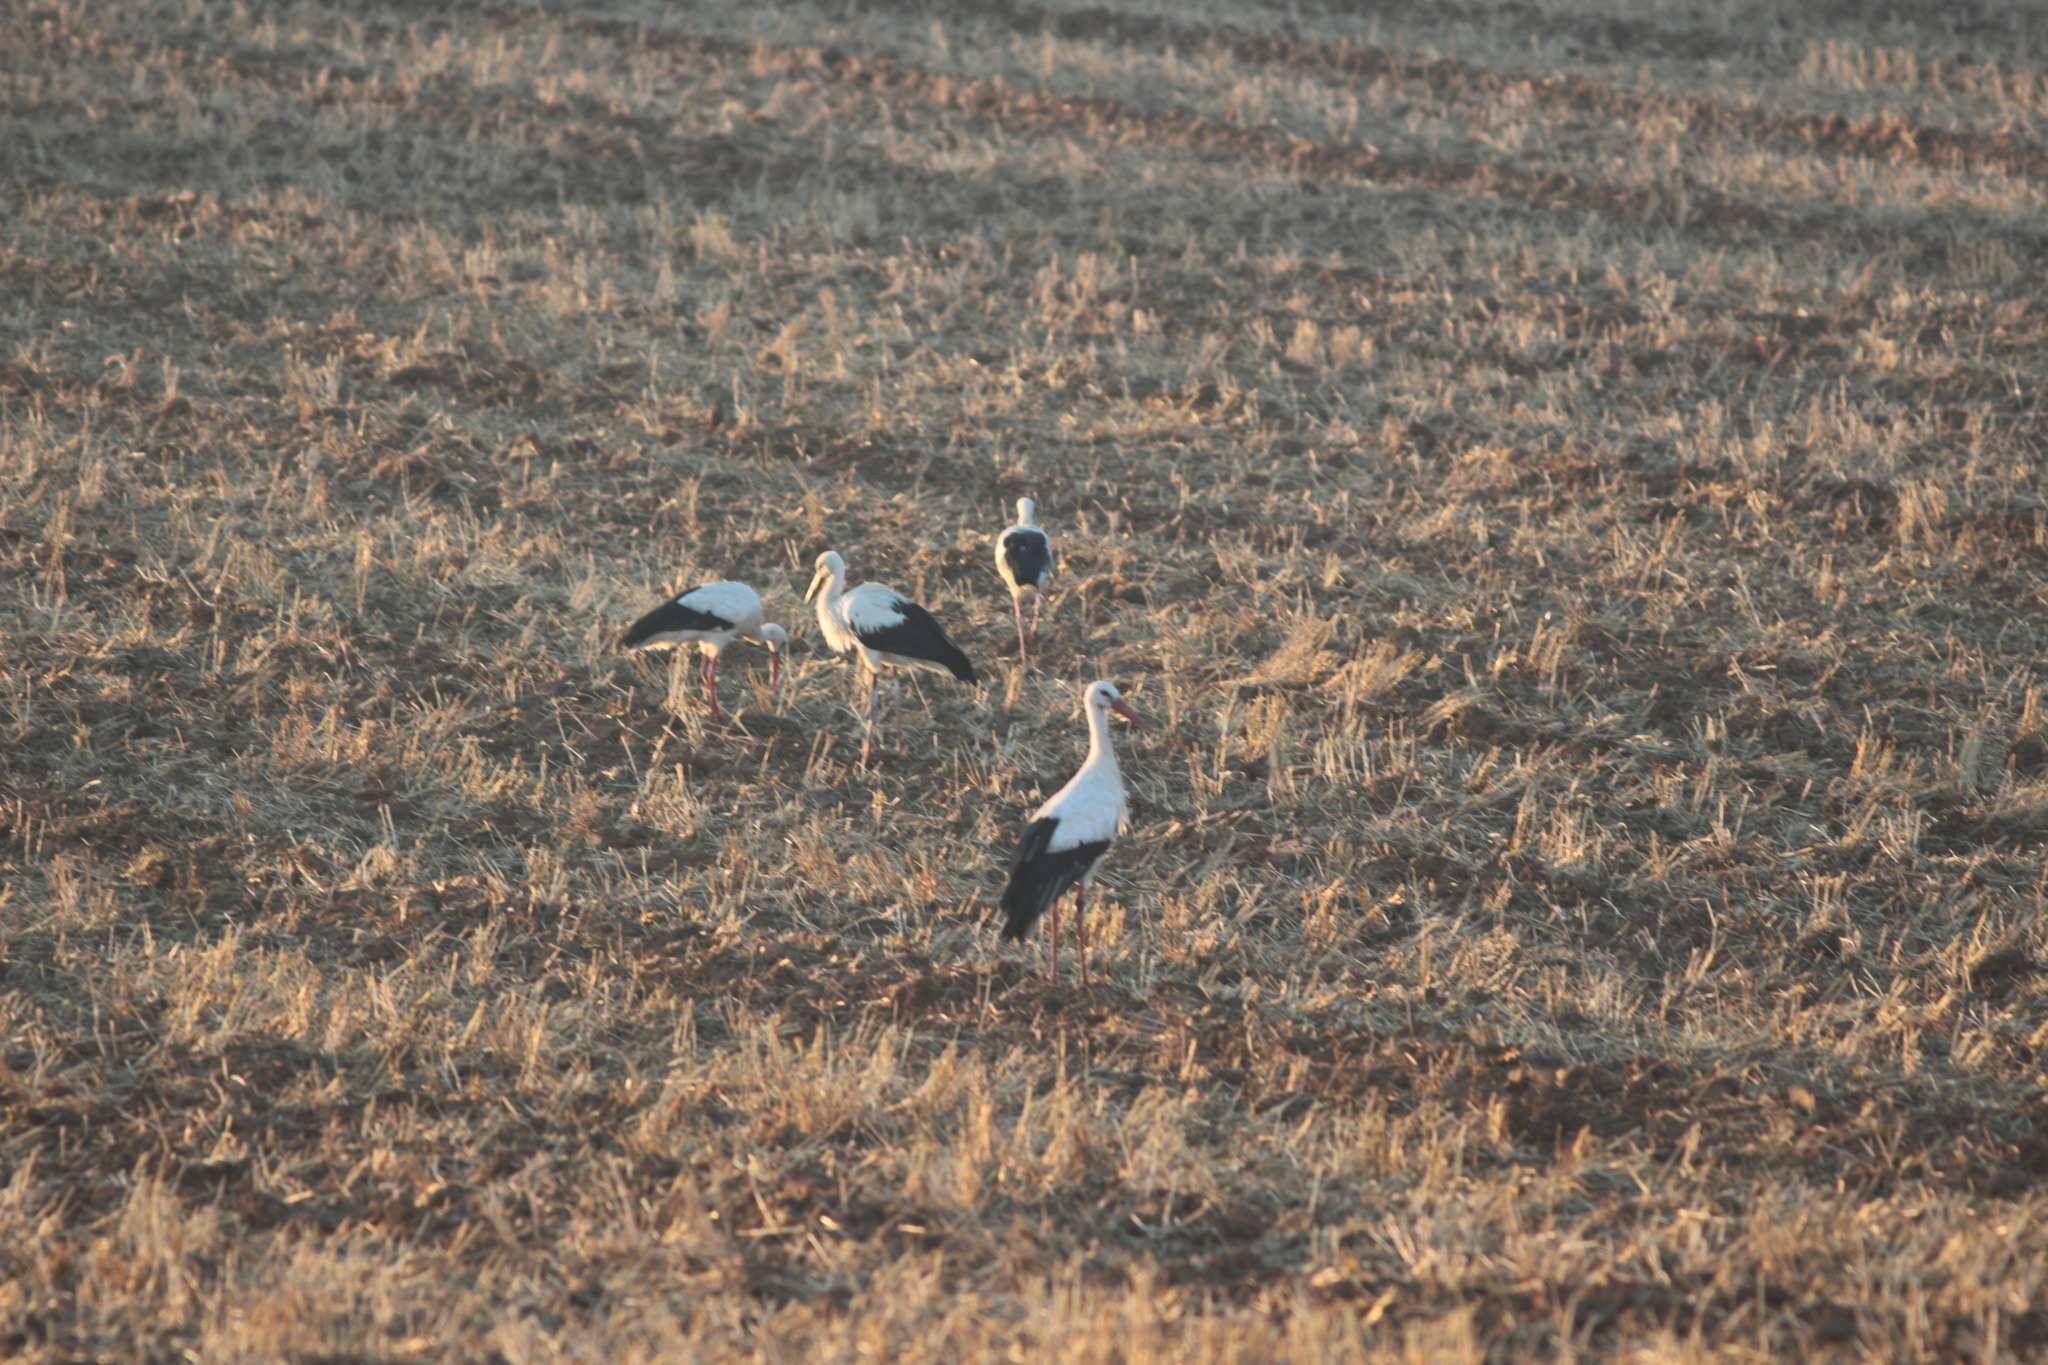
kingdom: Animalia
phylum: Chordata
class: Aves
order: Ciconiiformes
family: Ciconiidae
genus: Ciconia
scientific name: Ciconia ciconia
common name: White stork
